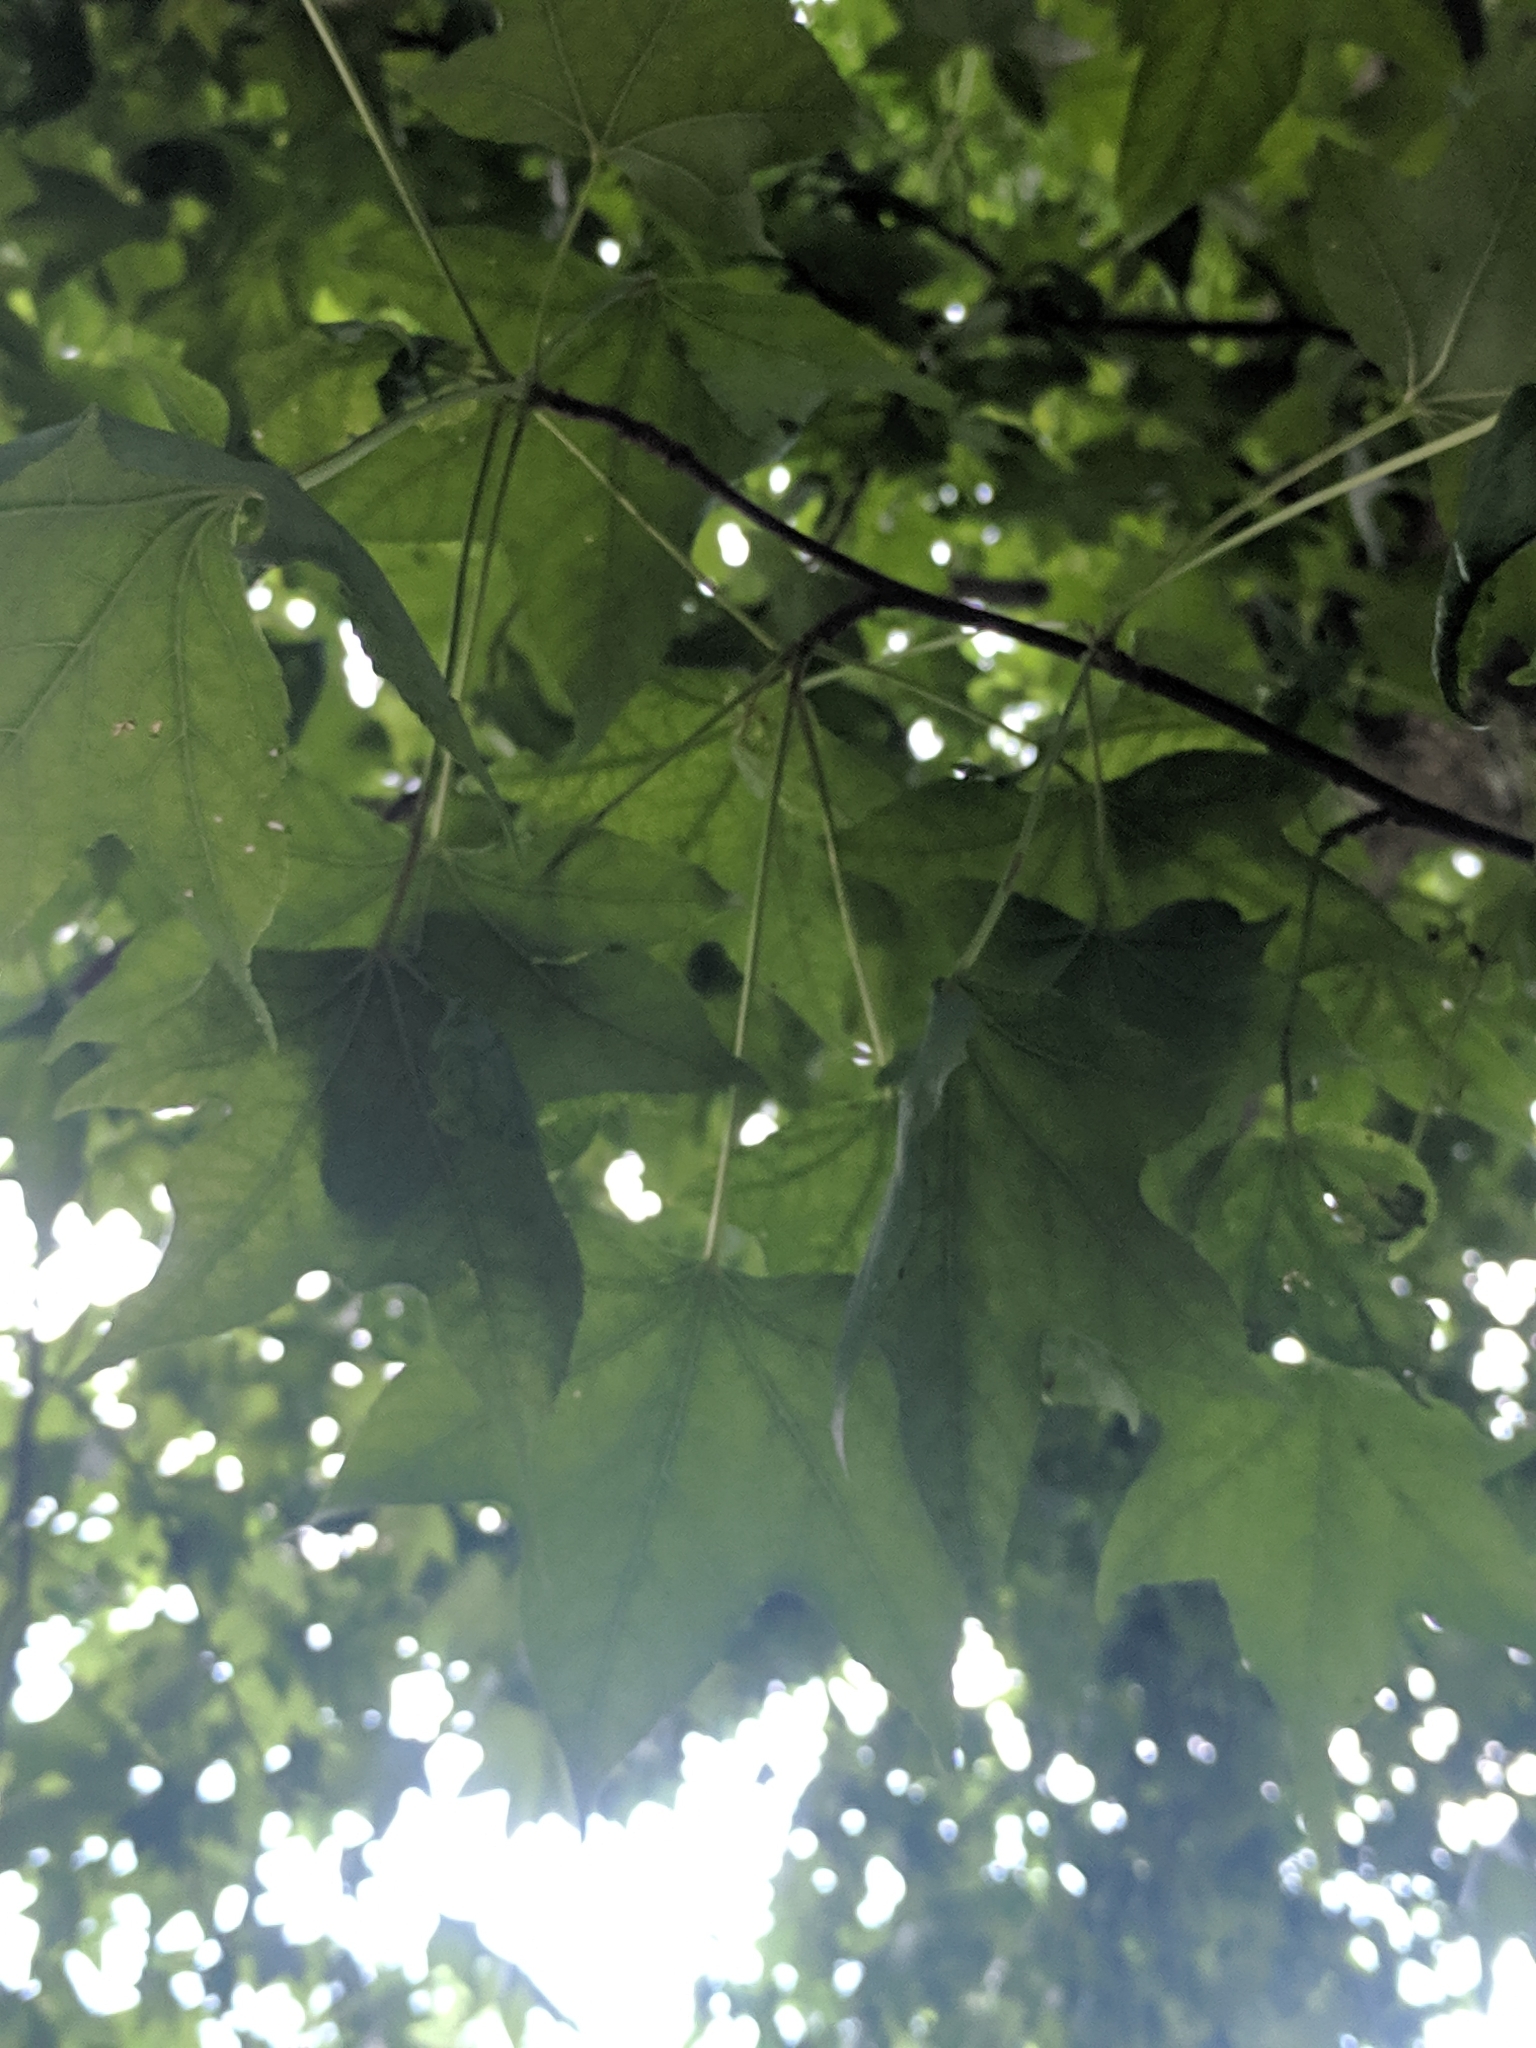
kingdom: Plantae
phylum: Tracheophyta
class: Magnoliopsida
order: Saxifragales
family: Altingiaceae
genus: Liquidambar
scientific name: Liquidambar styraciflua
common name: Sweet gum
